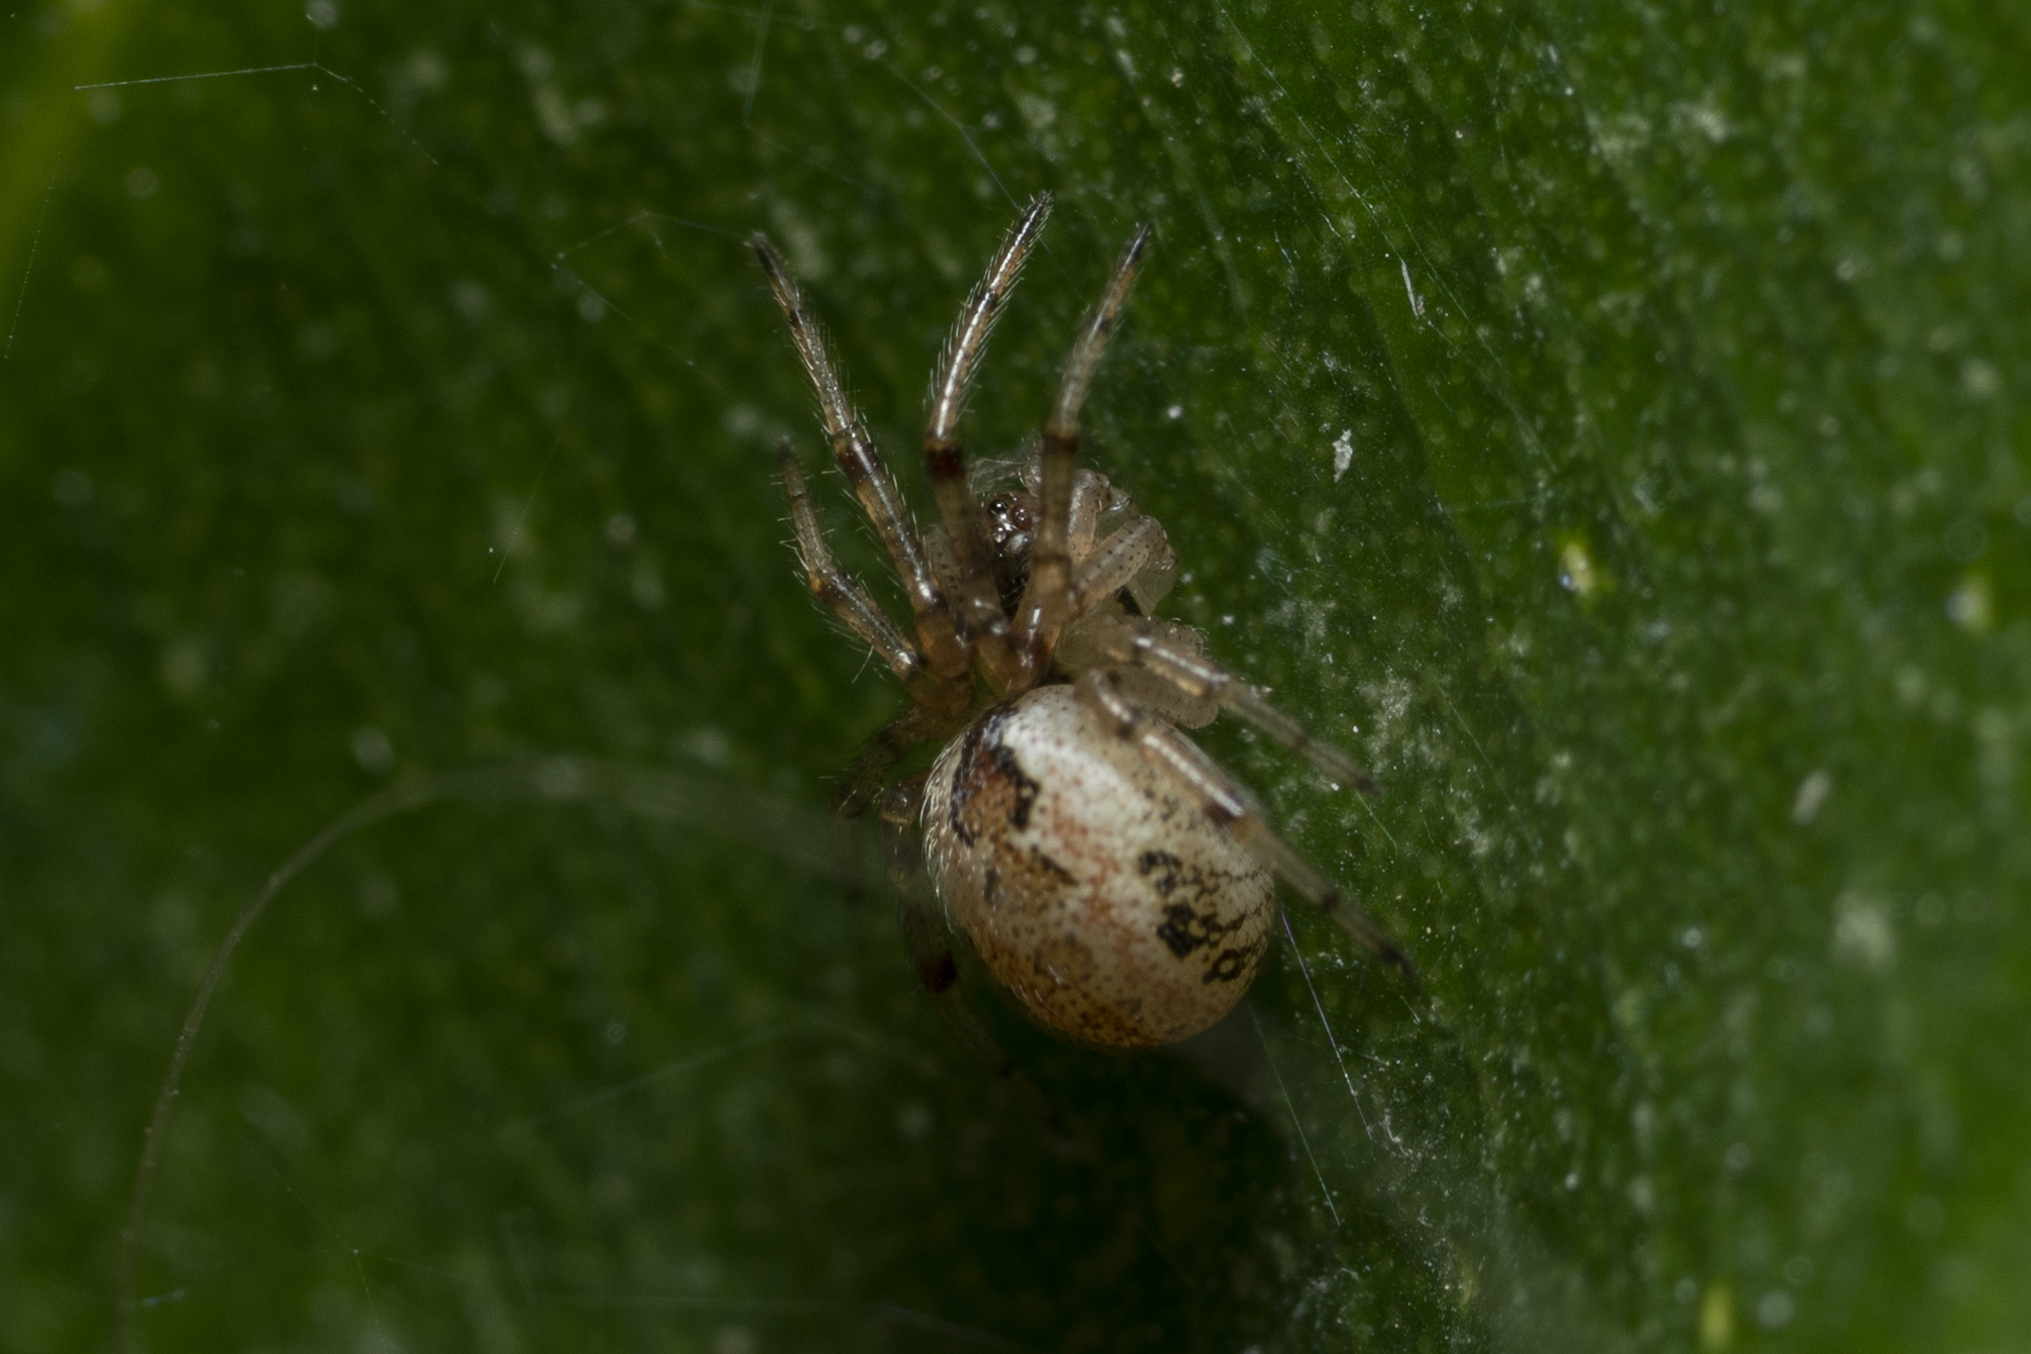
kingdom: Animalia
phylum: Arthropoda
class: Arachnida
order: Araneae
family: Theridiidae
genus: Kochiura
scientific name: Kochiura aulica
